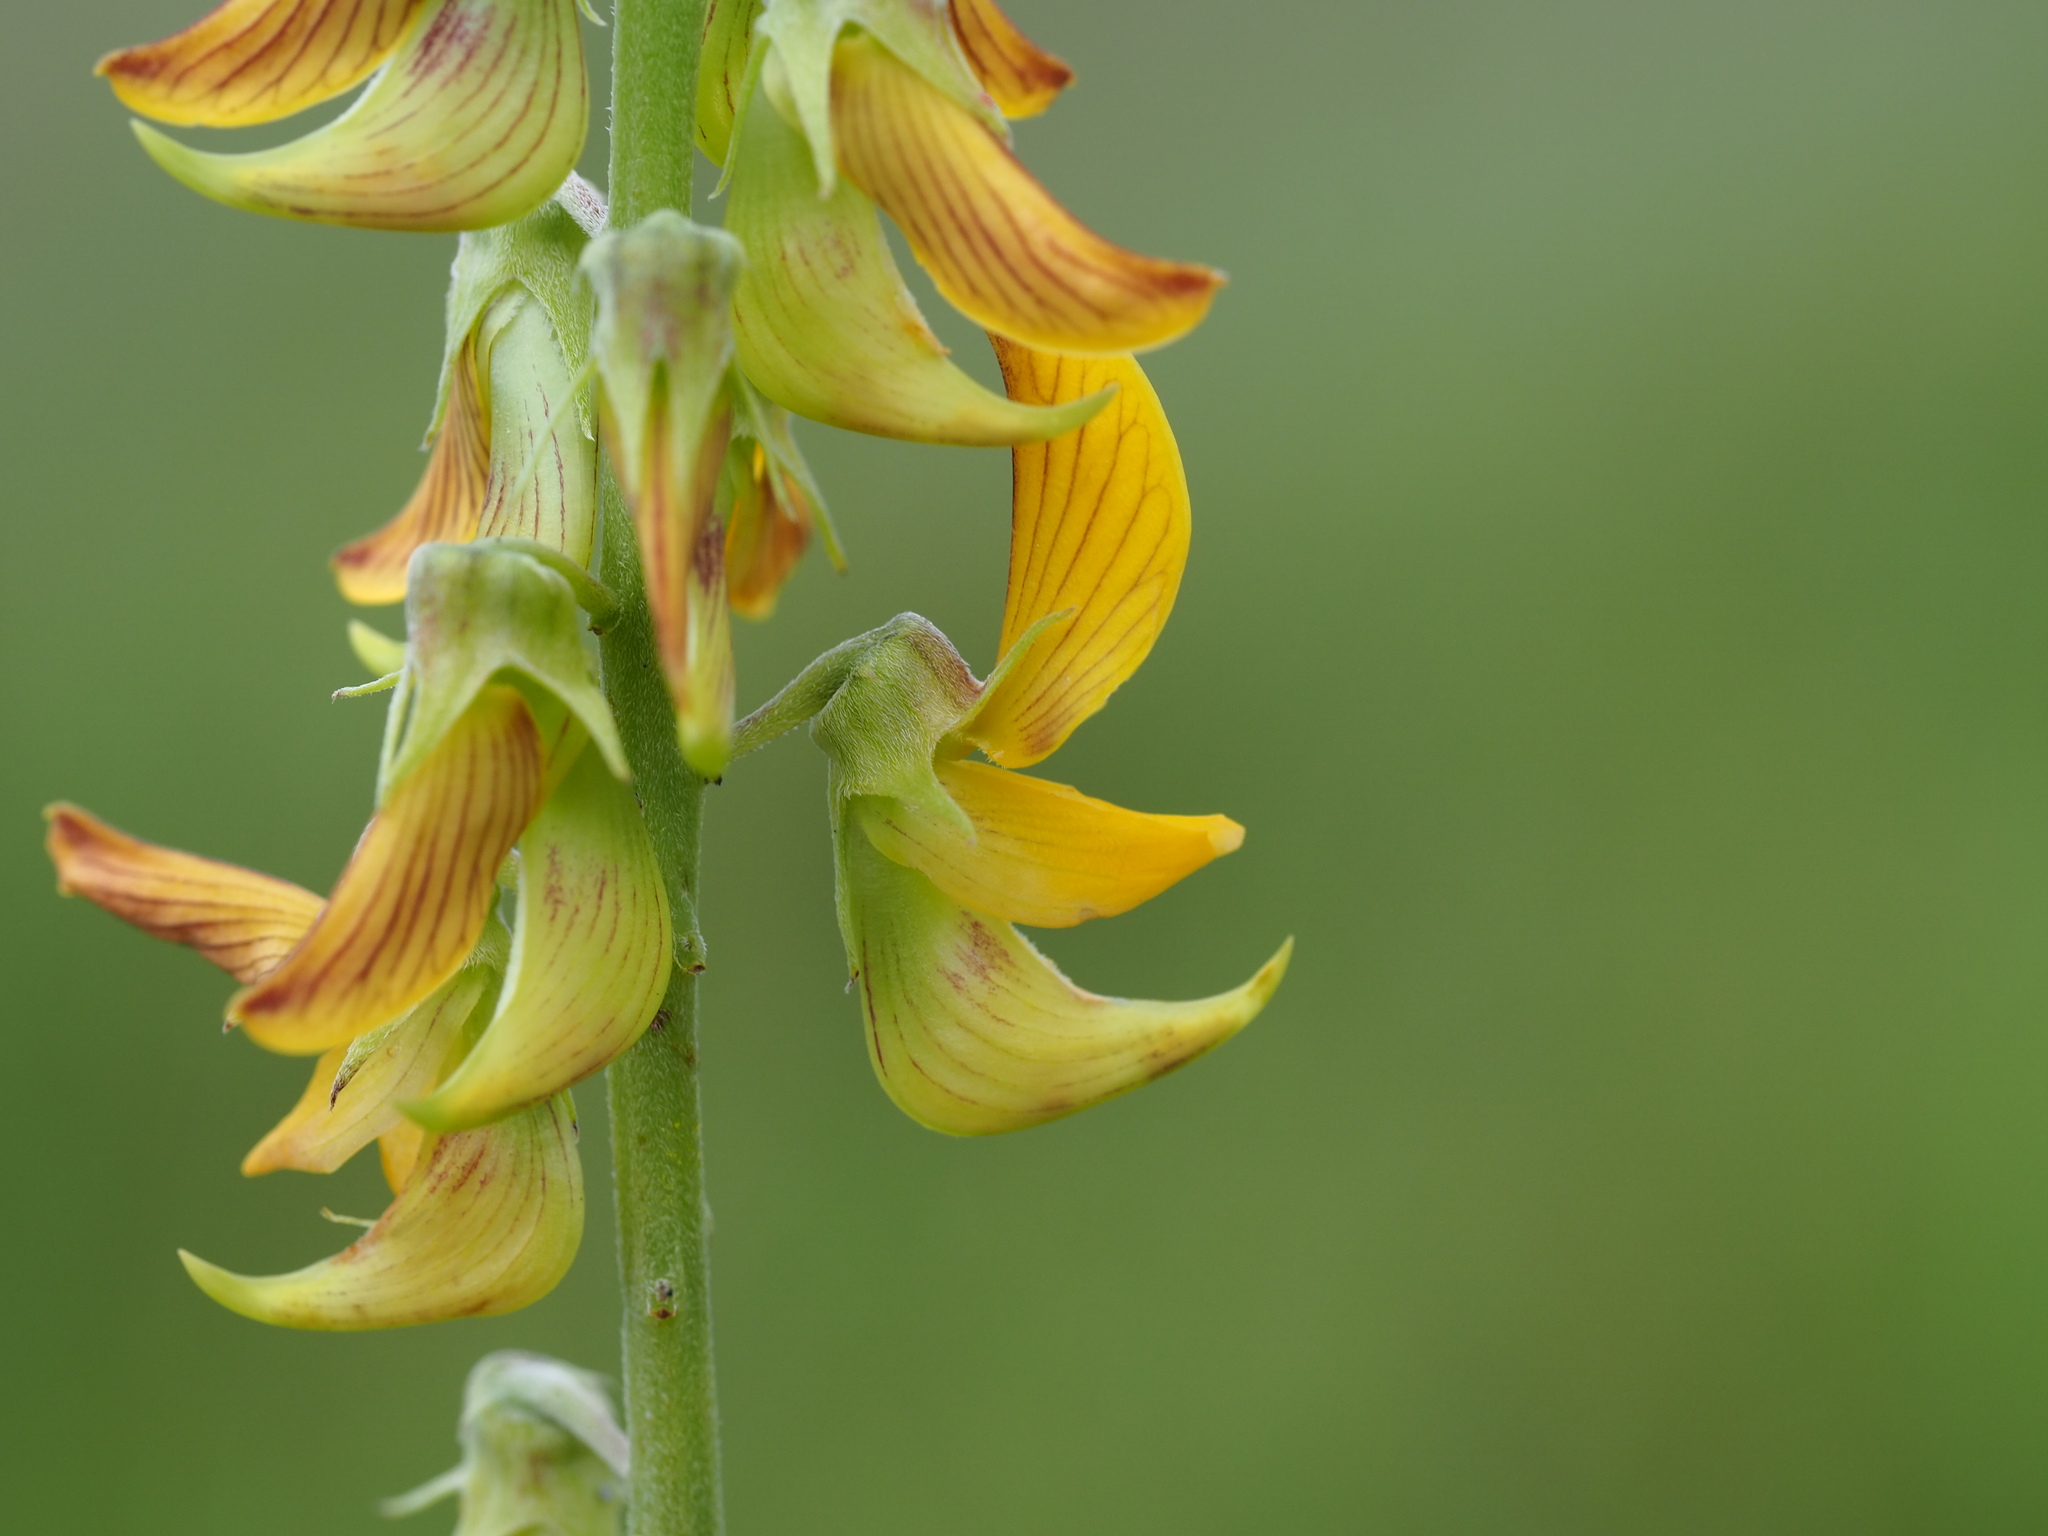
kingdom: Plantae
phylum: Tracheophyta
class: Magnoliopsida
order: Fabales
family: Fabaceae
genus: Crotalaria
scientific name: Crotalaria pallida
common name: Smooth rattlebox
